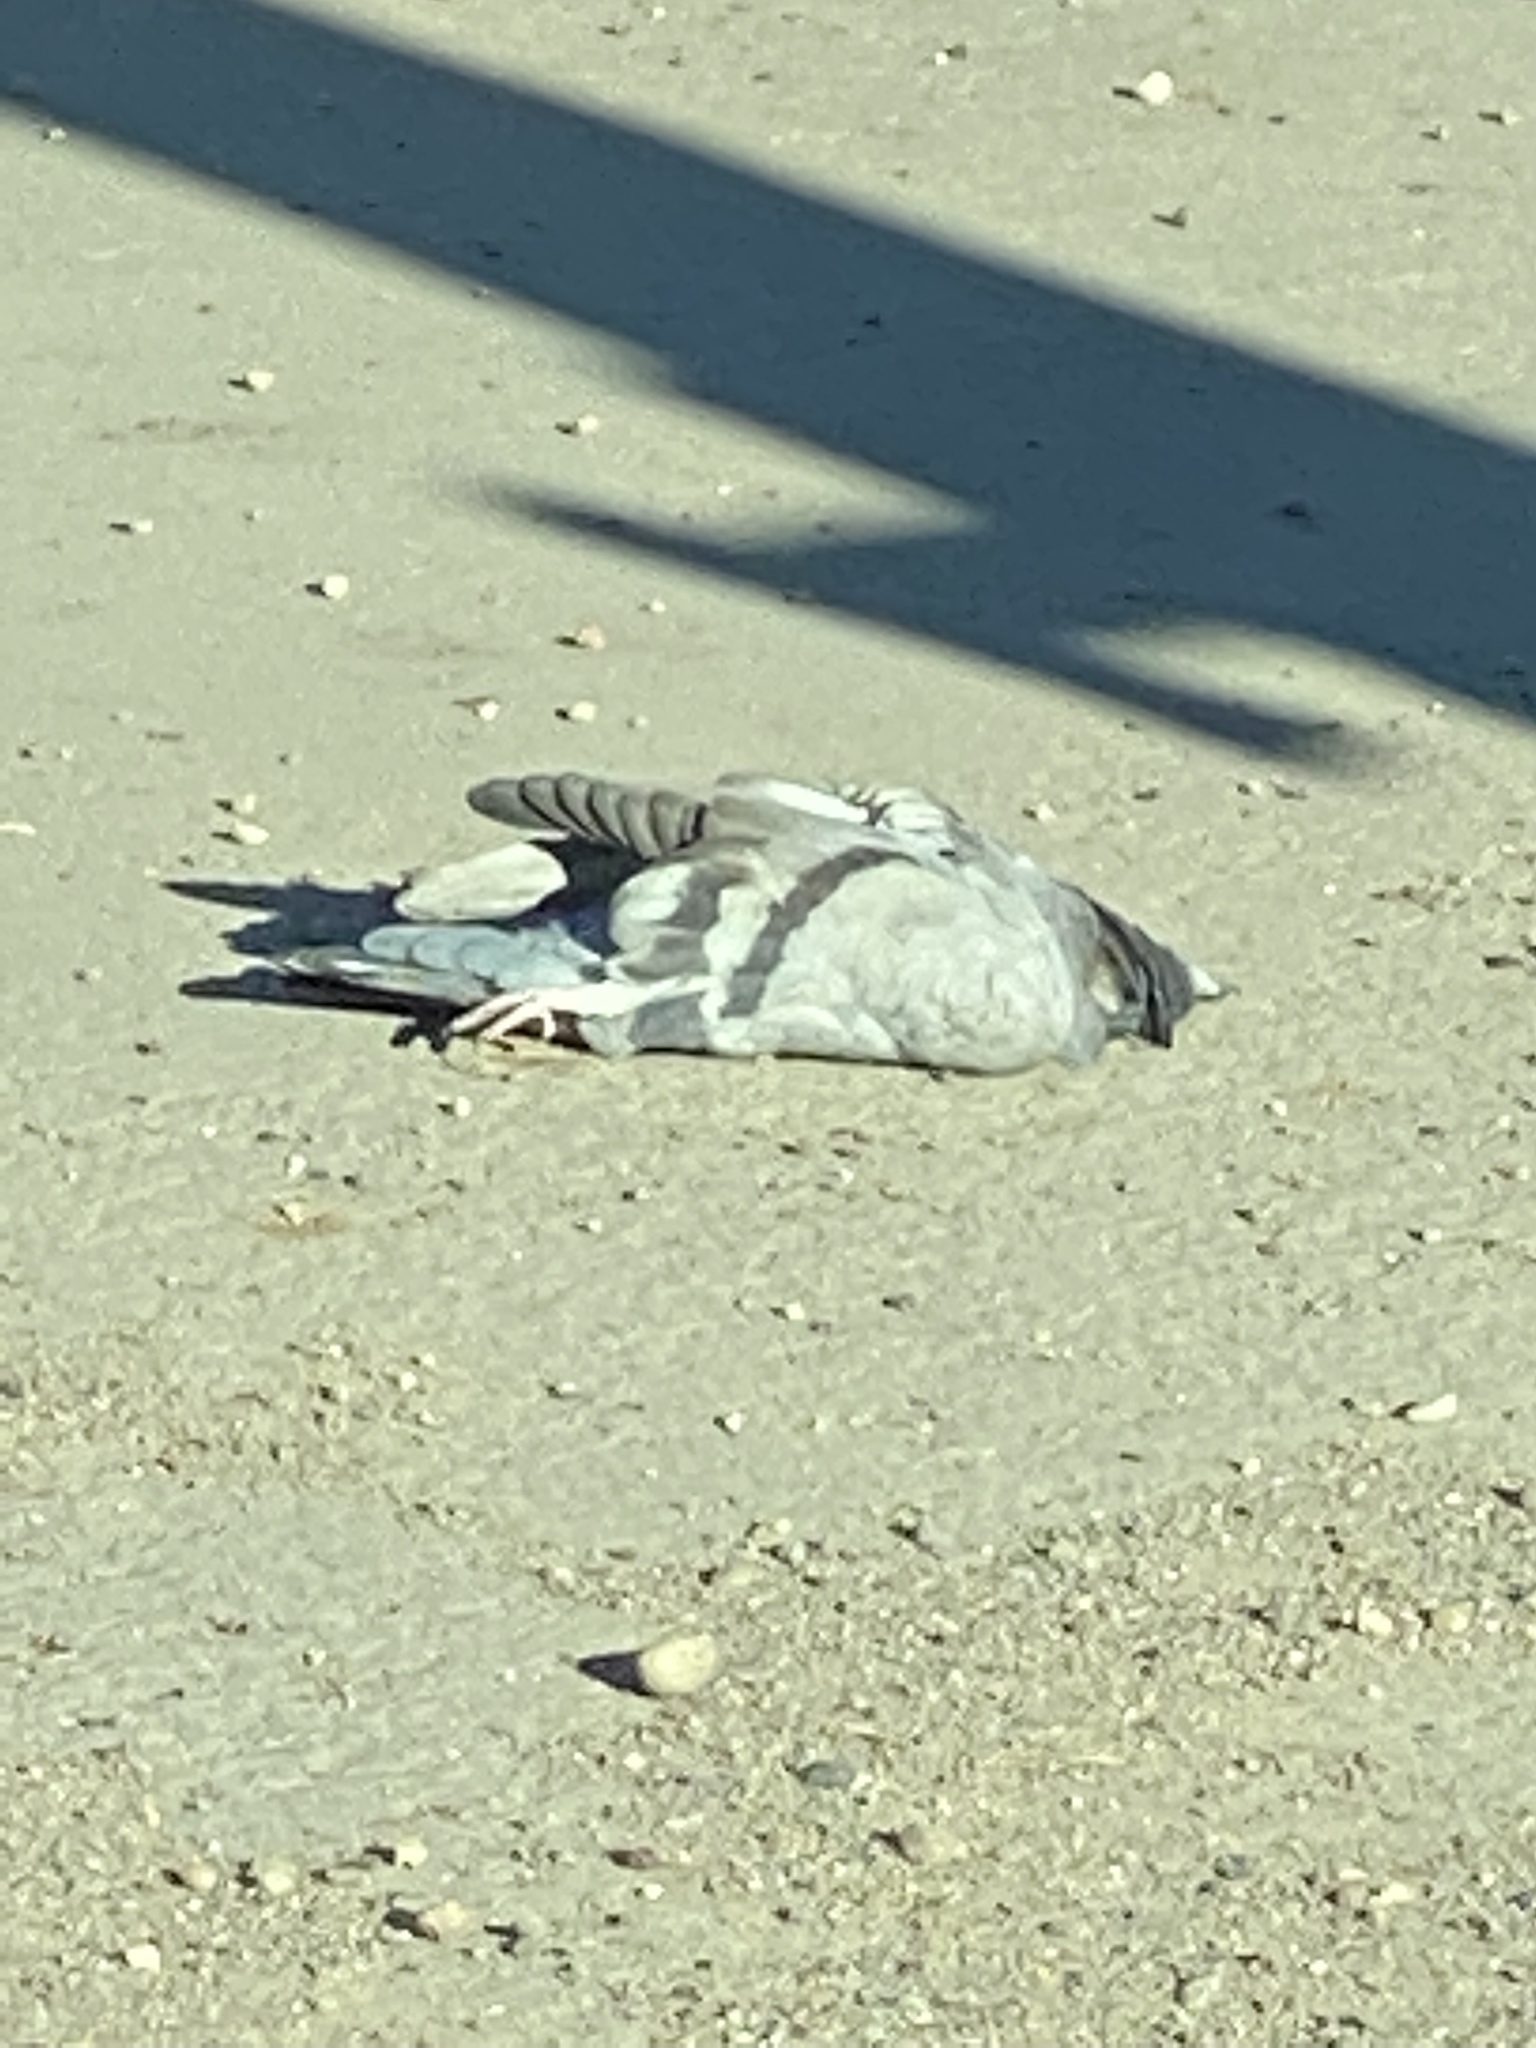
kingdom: Animalia
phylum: Chordata
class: Aves
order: Columbiformes
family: Columbidae
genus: Columba
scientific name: Columba livia
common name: Rock pigeon
